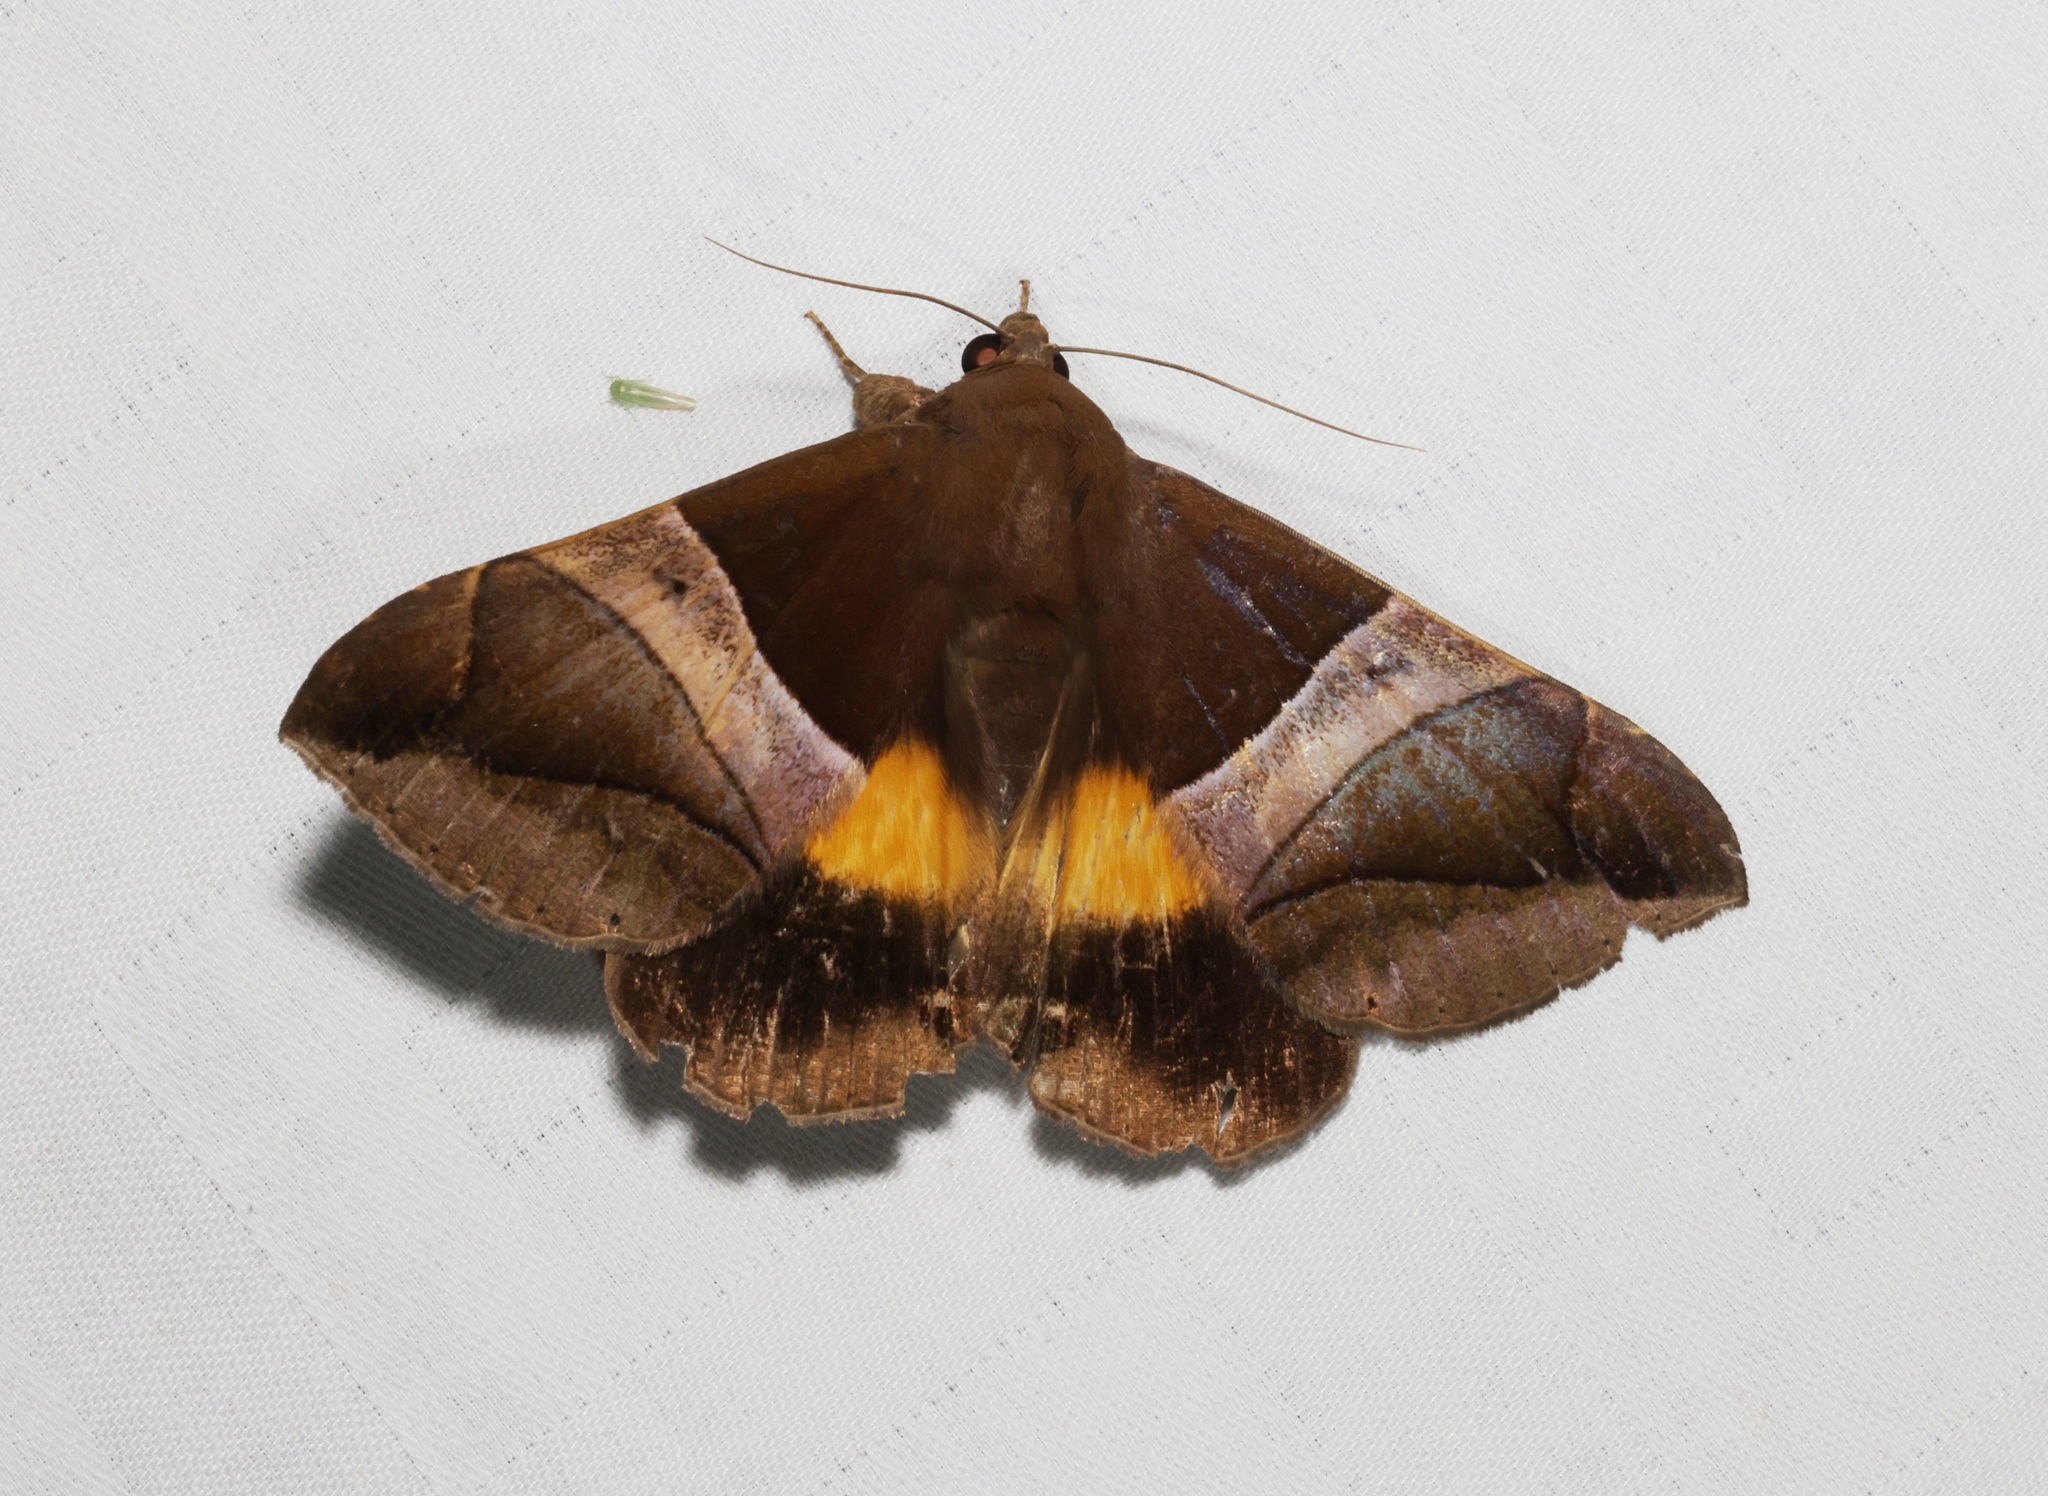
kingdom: Animalia
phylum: Arthropoda
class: Insecta
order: Lepidoptera
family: Erebidae
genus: Bastilla
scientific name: Bastilla fulvotaenia
